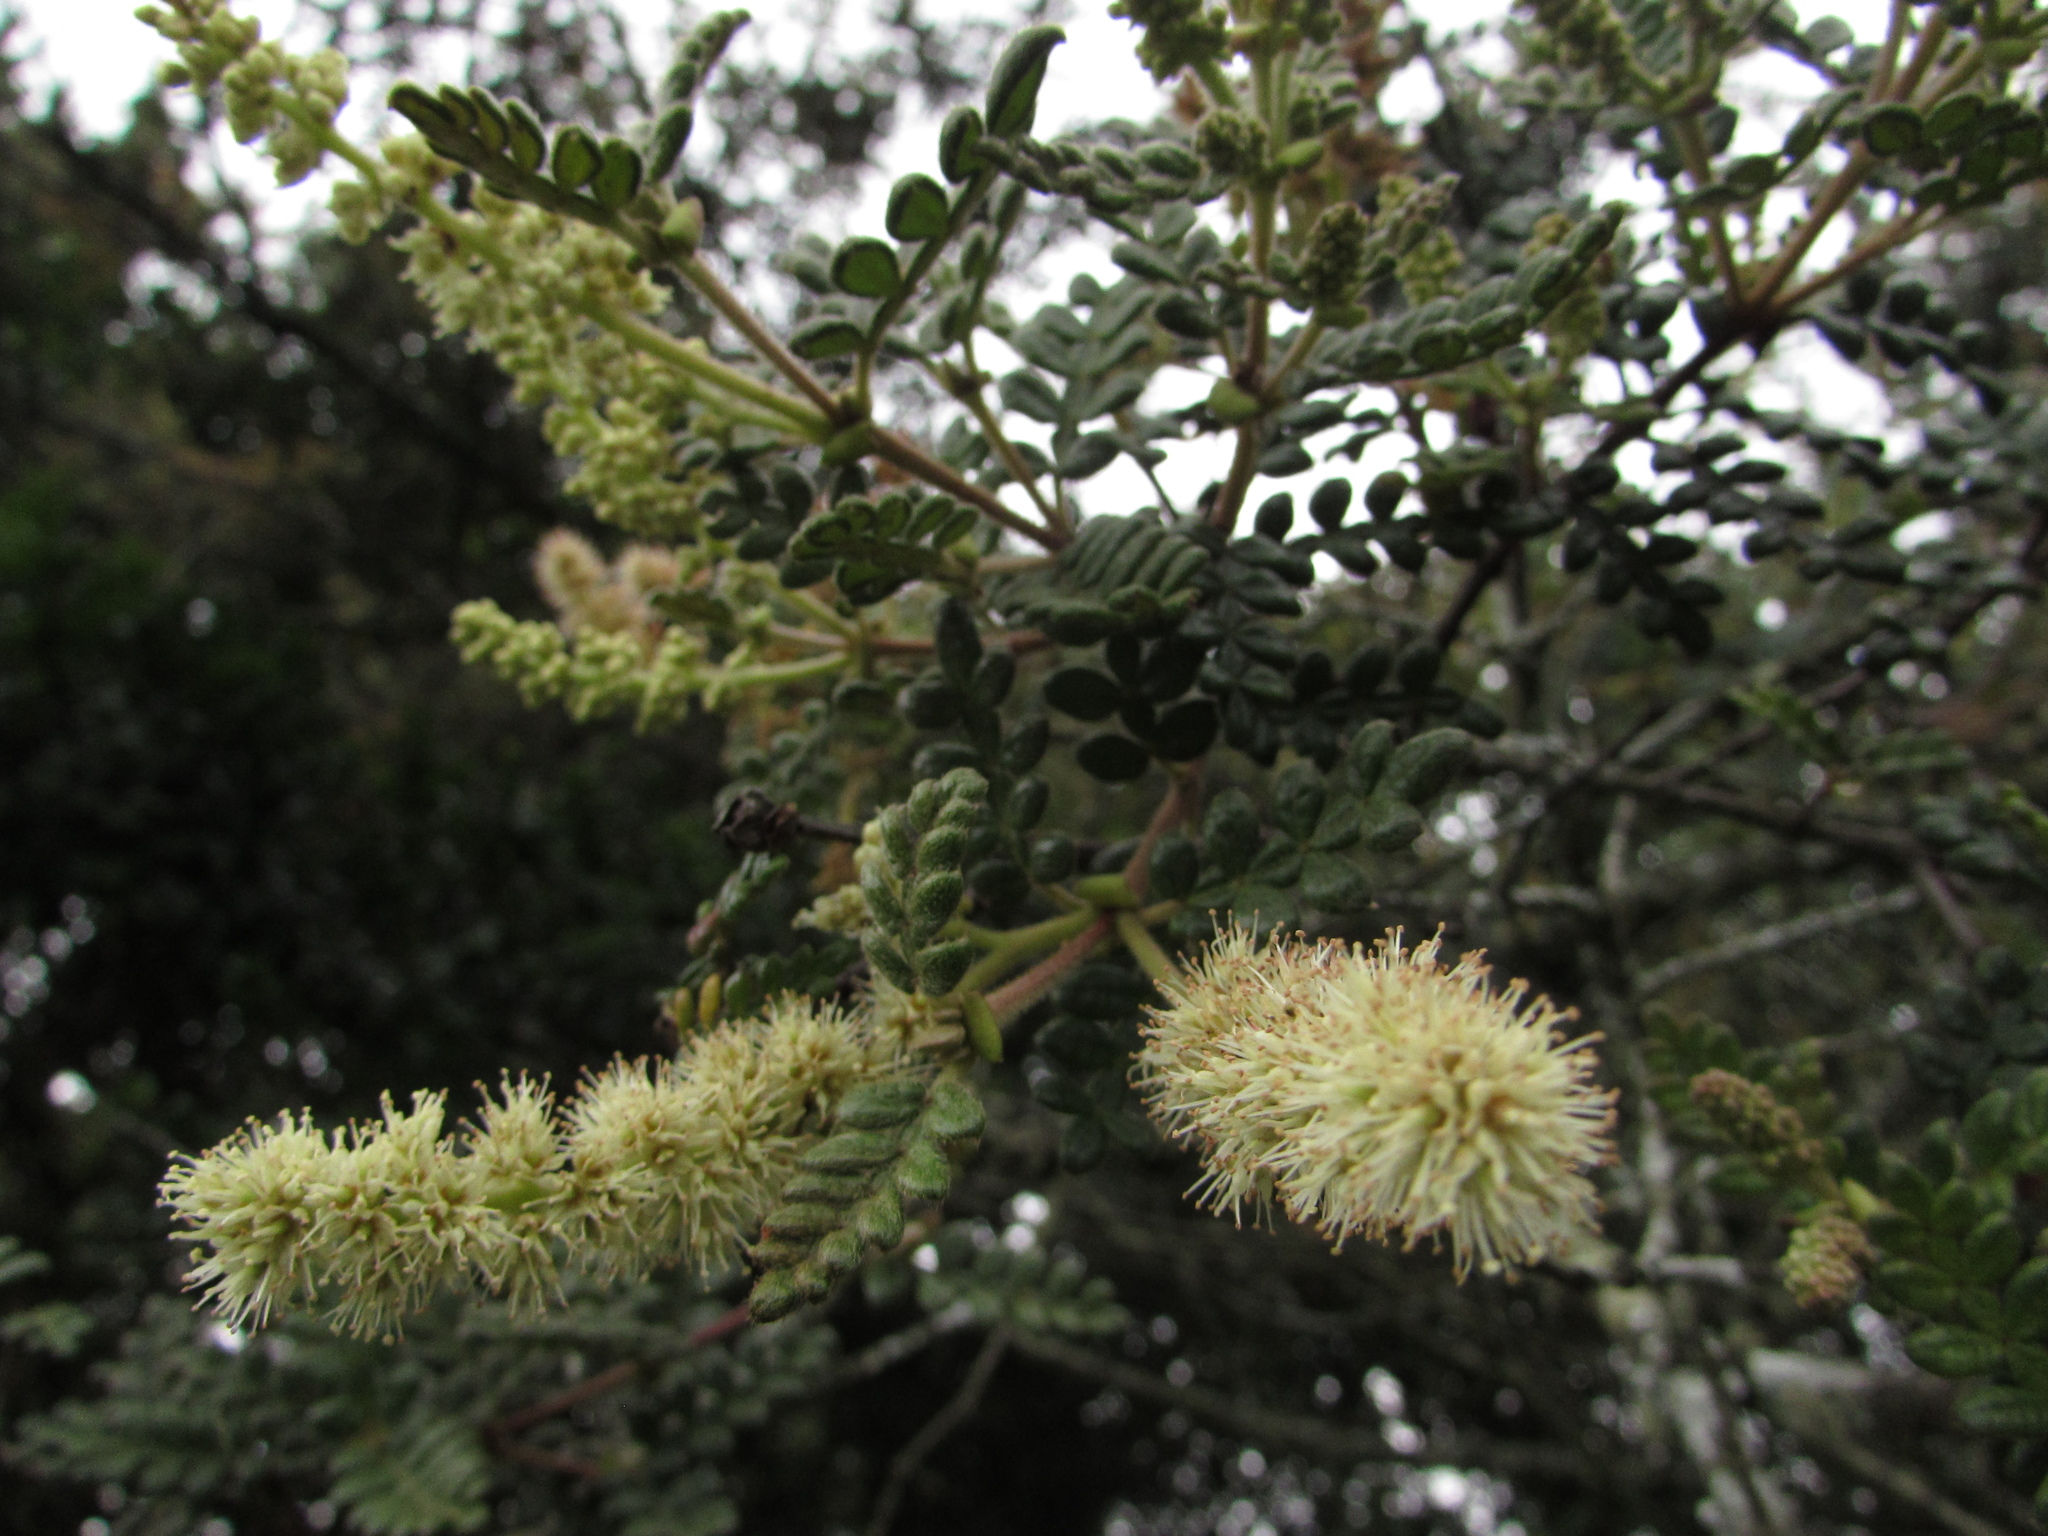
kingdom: Plantae
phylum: Tracheophyta
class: Magnoliopsida
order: Oxalidales
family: Cunoniaceae
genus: Weinmannia
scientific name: Weinmannia tomentosa
